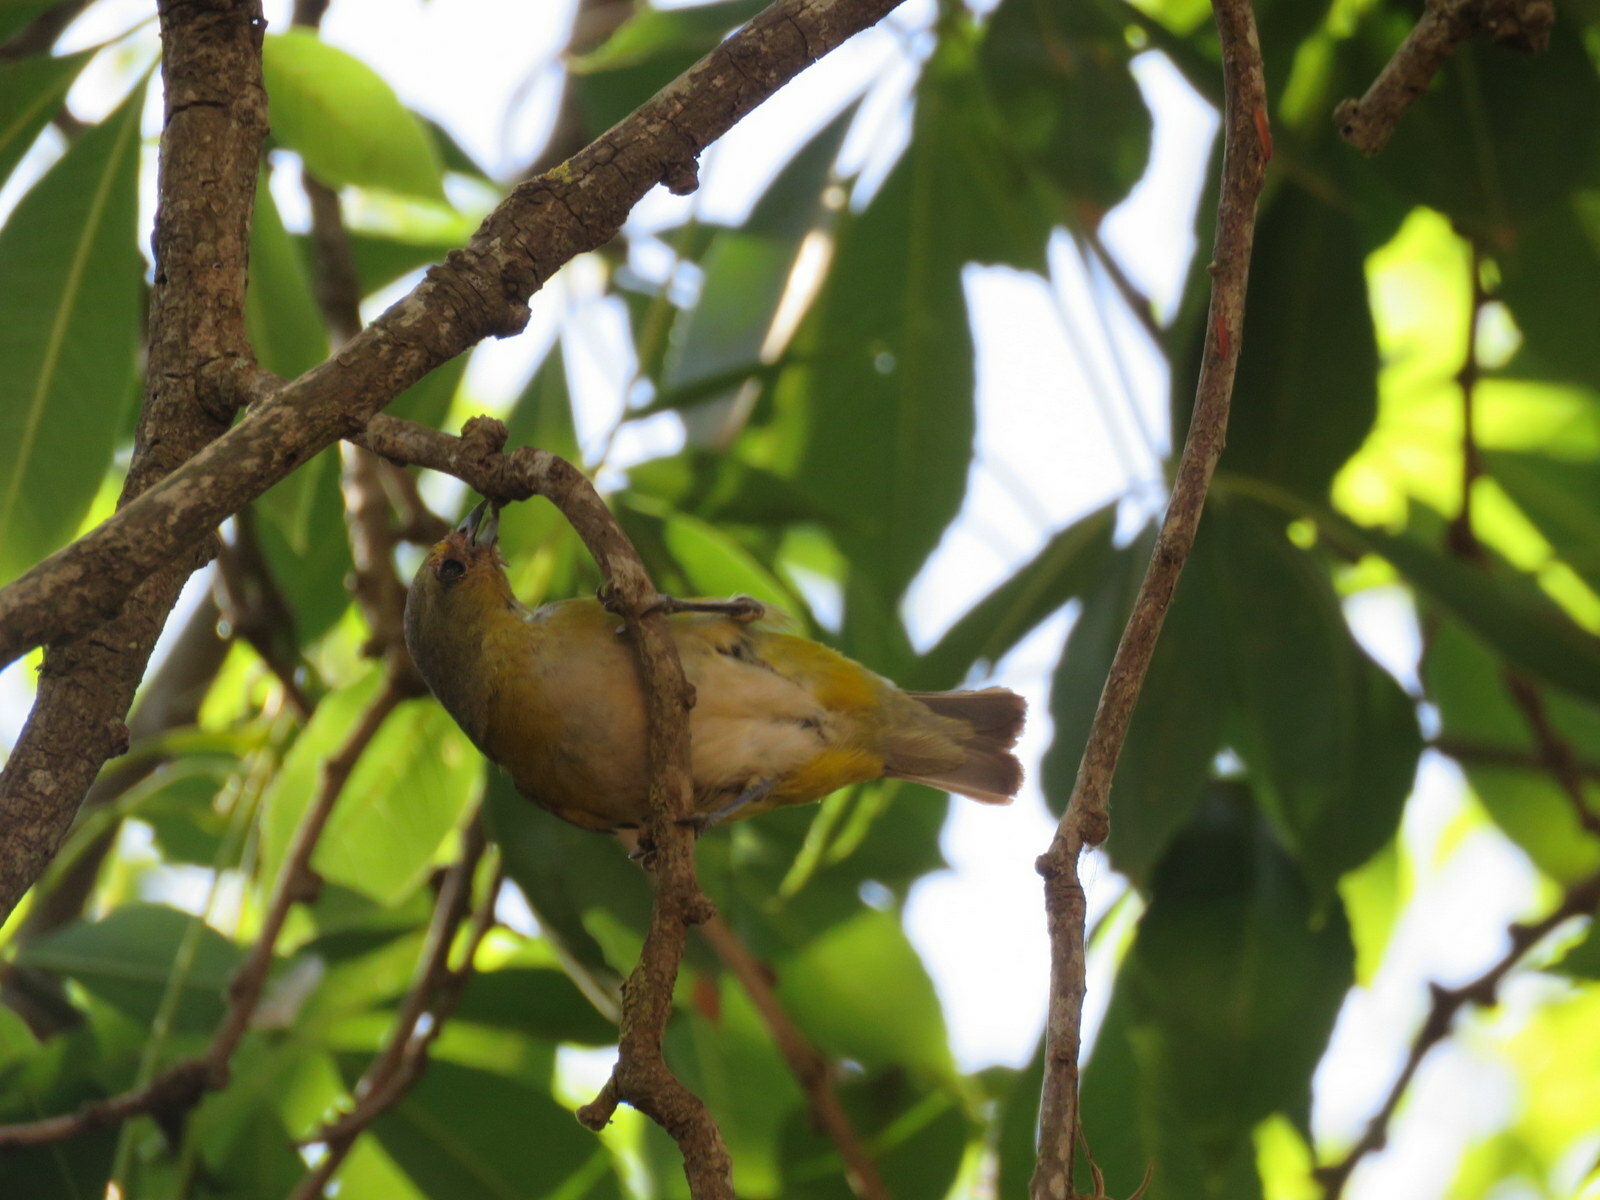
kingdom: Animalia
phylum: Chordata
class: Aves
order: Passeriformes
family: Fringillidae
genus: Euphonia
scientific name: Euphonia chlorotica
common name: Purple-throated euphonia
